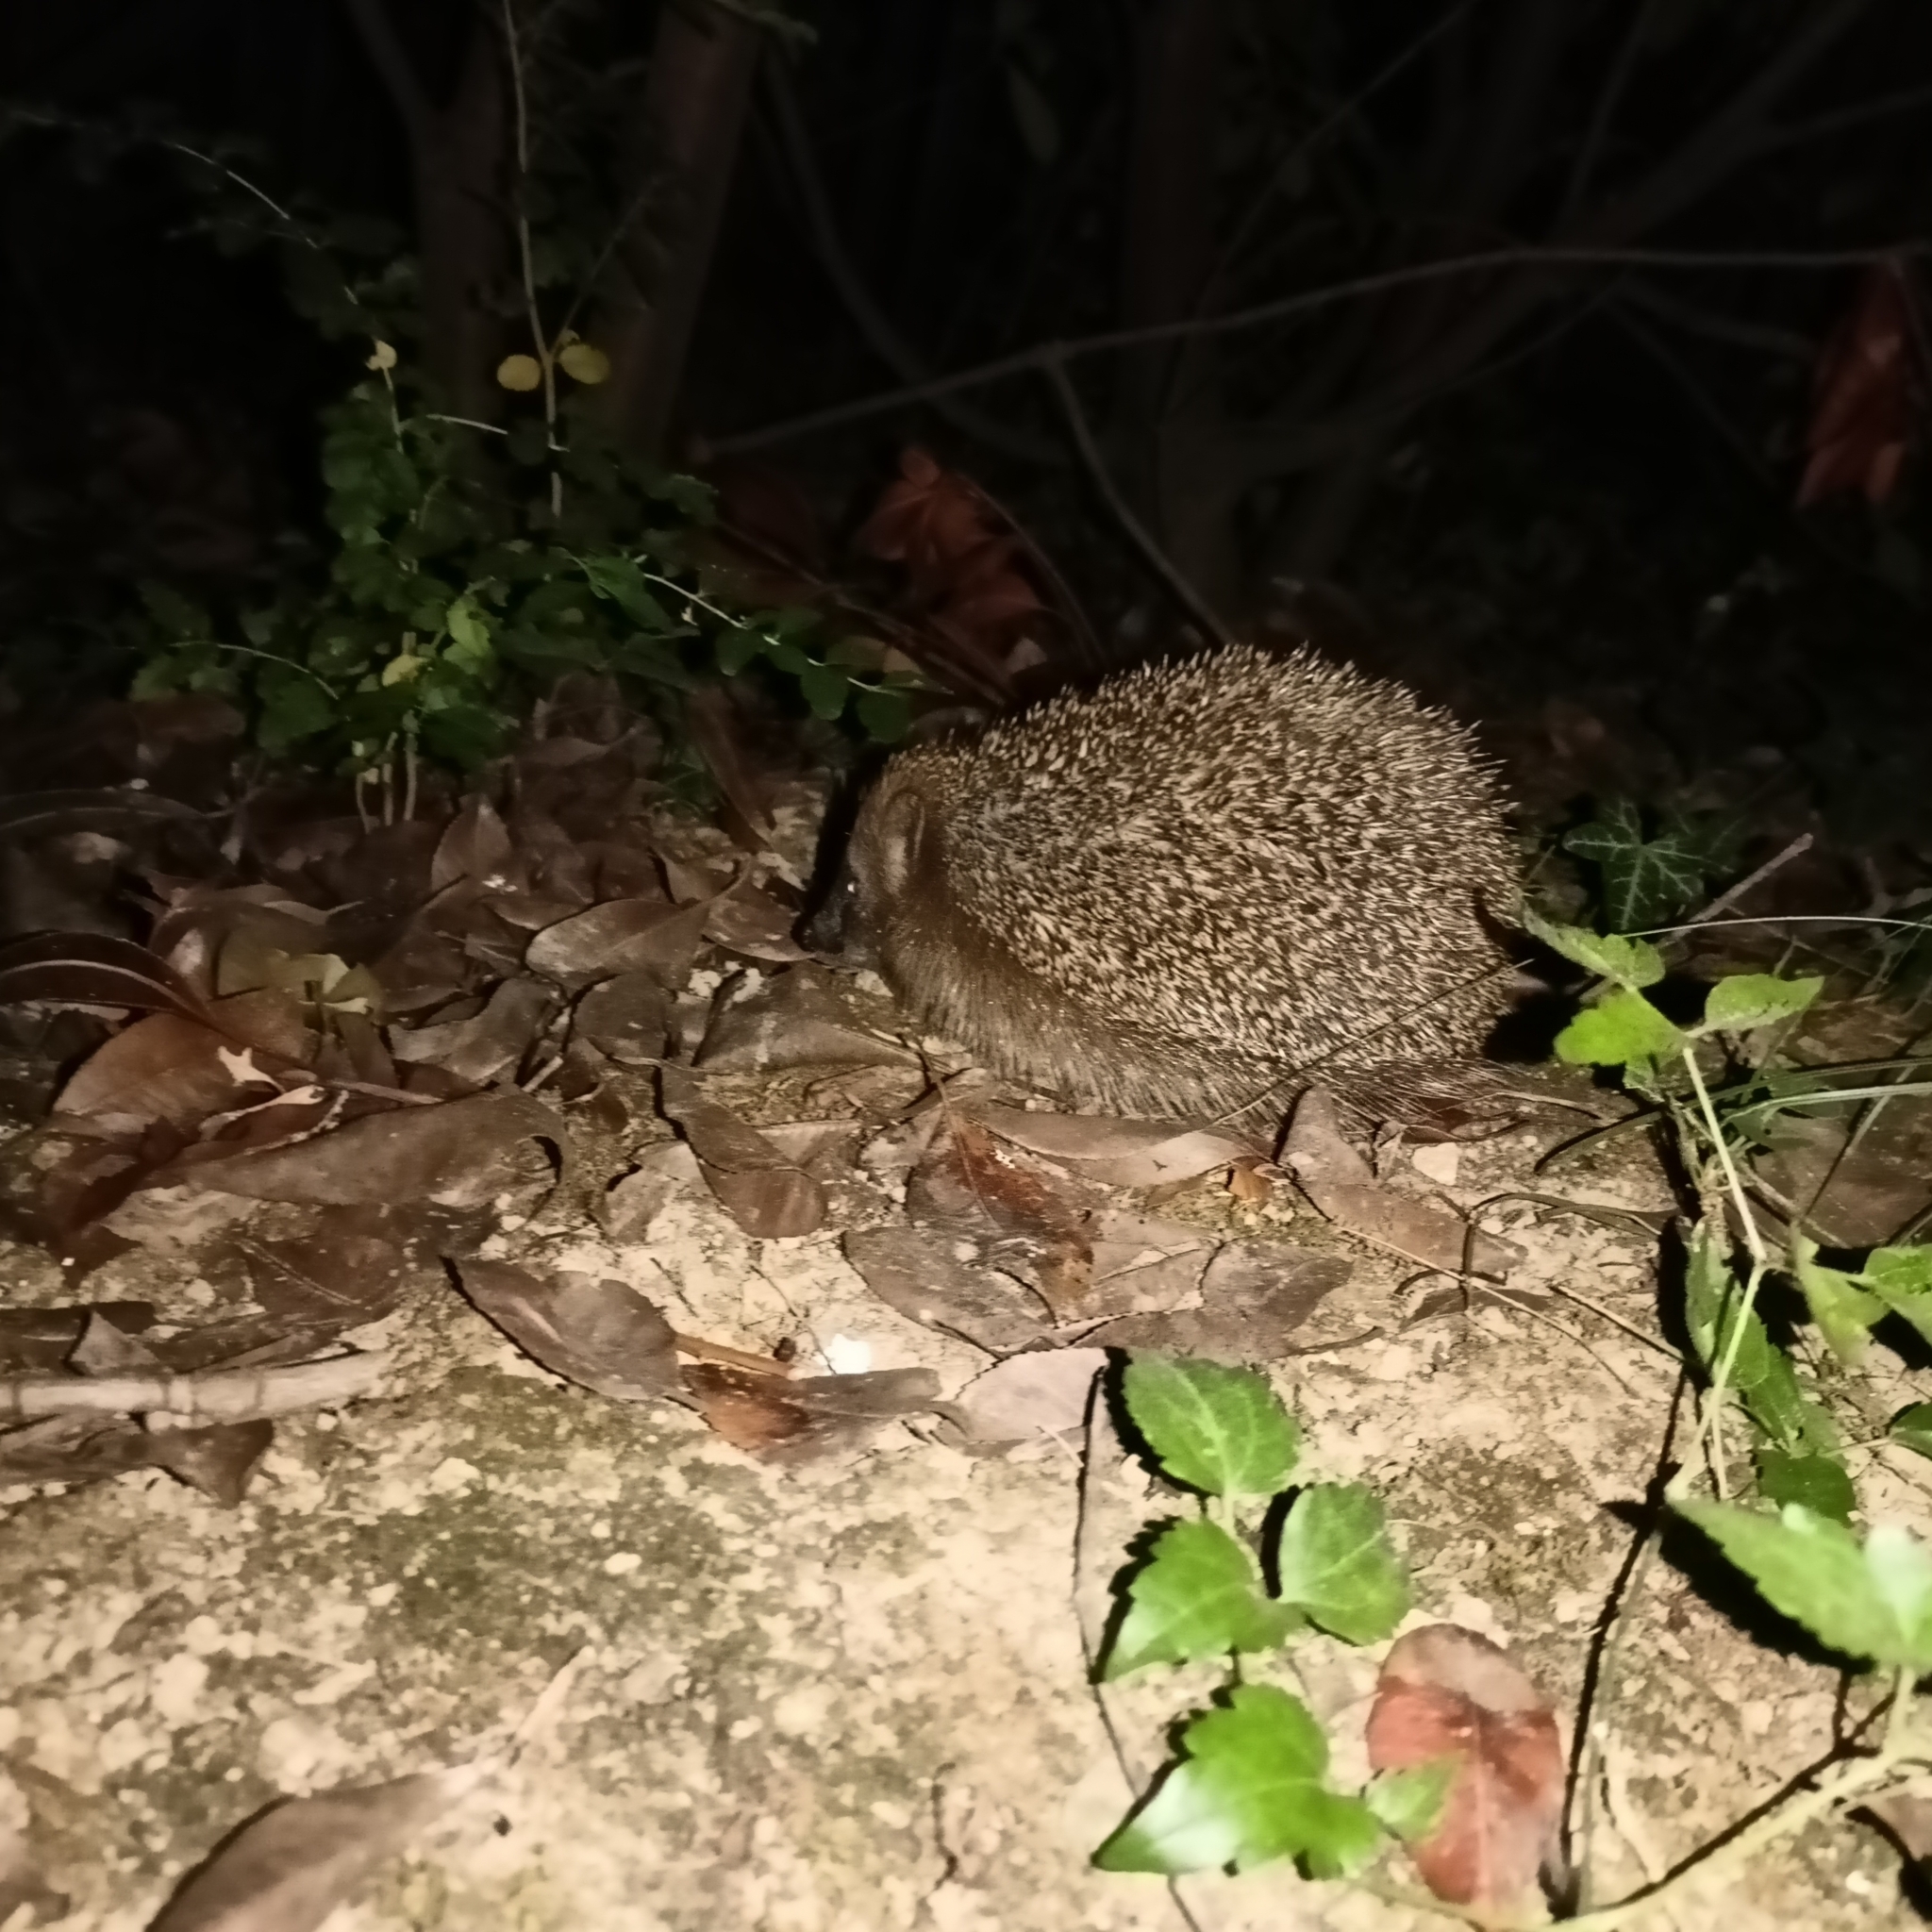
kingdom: Animalia
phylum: Chordata
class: Mammalia
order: Erinaceomorpha
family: Erinaceidae
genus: Erinaceus
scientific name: Erinaceus europaeus
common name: West european hedgehog
